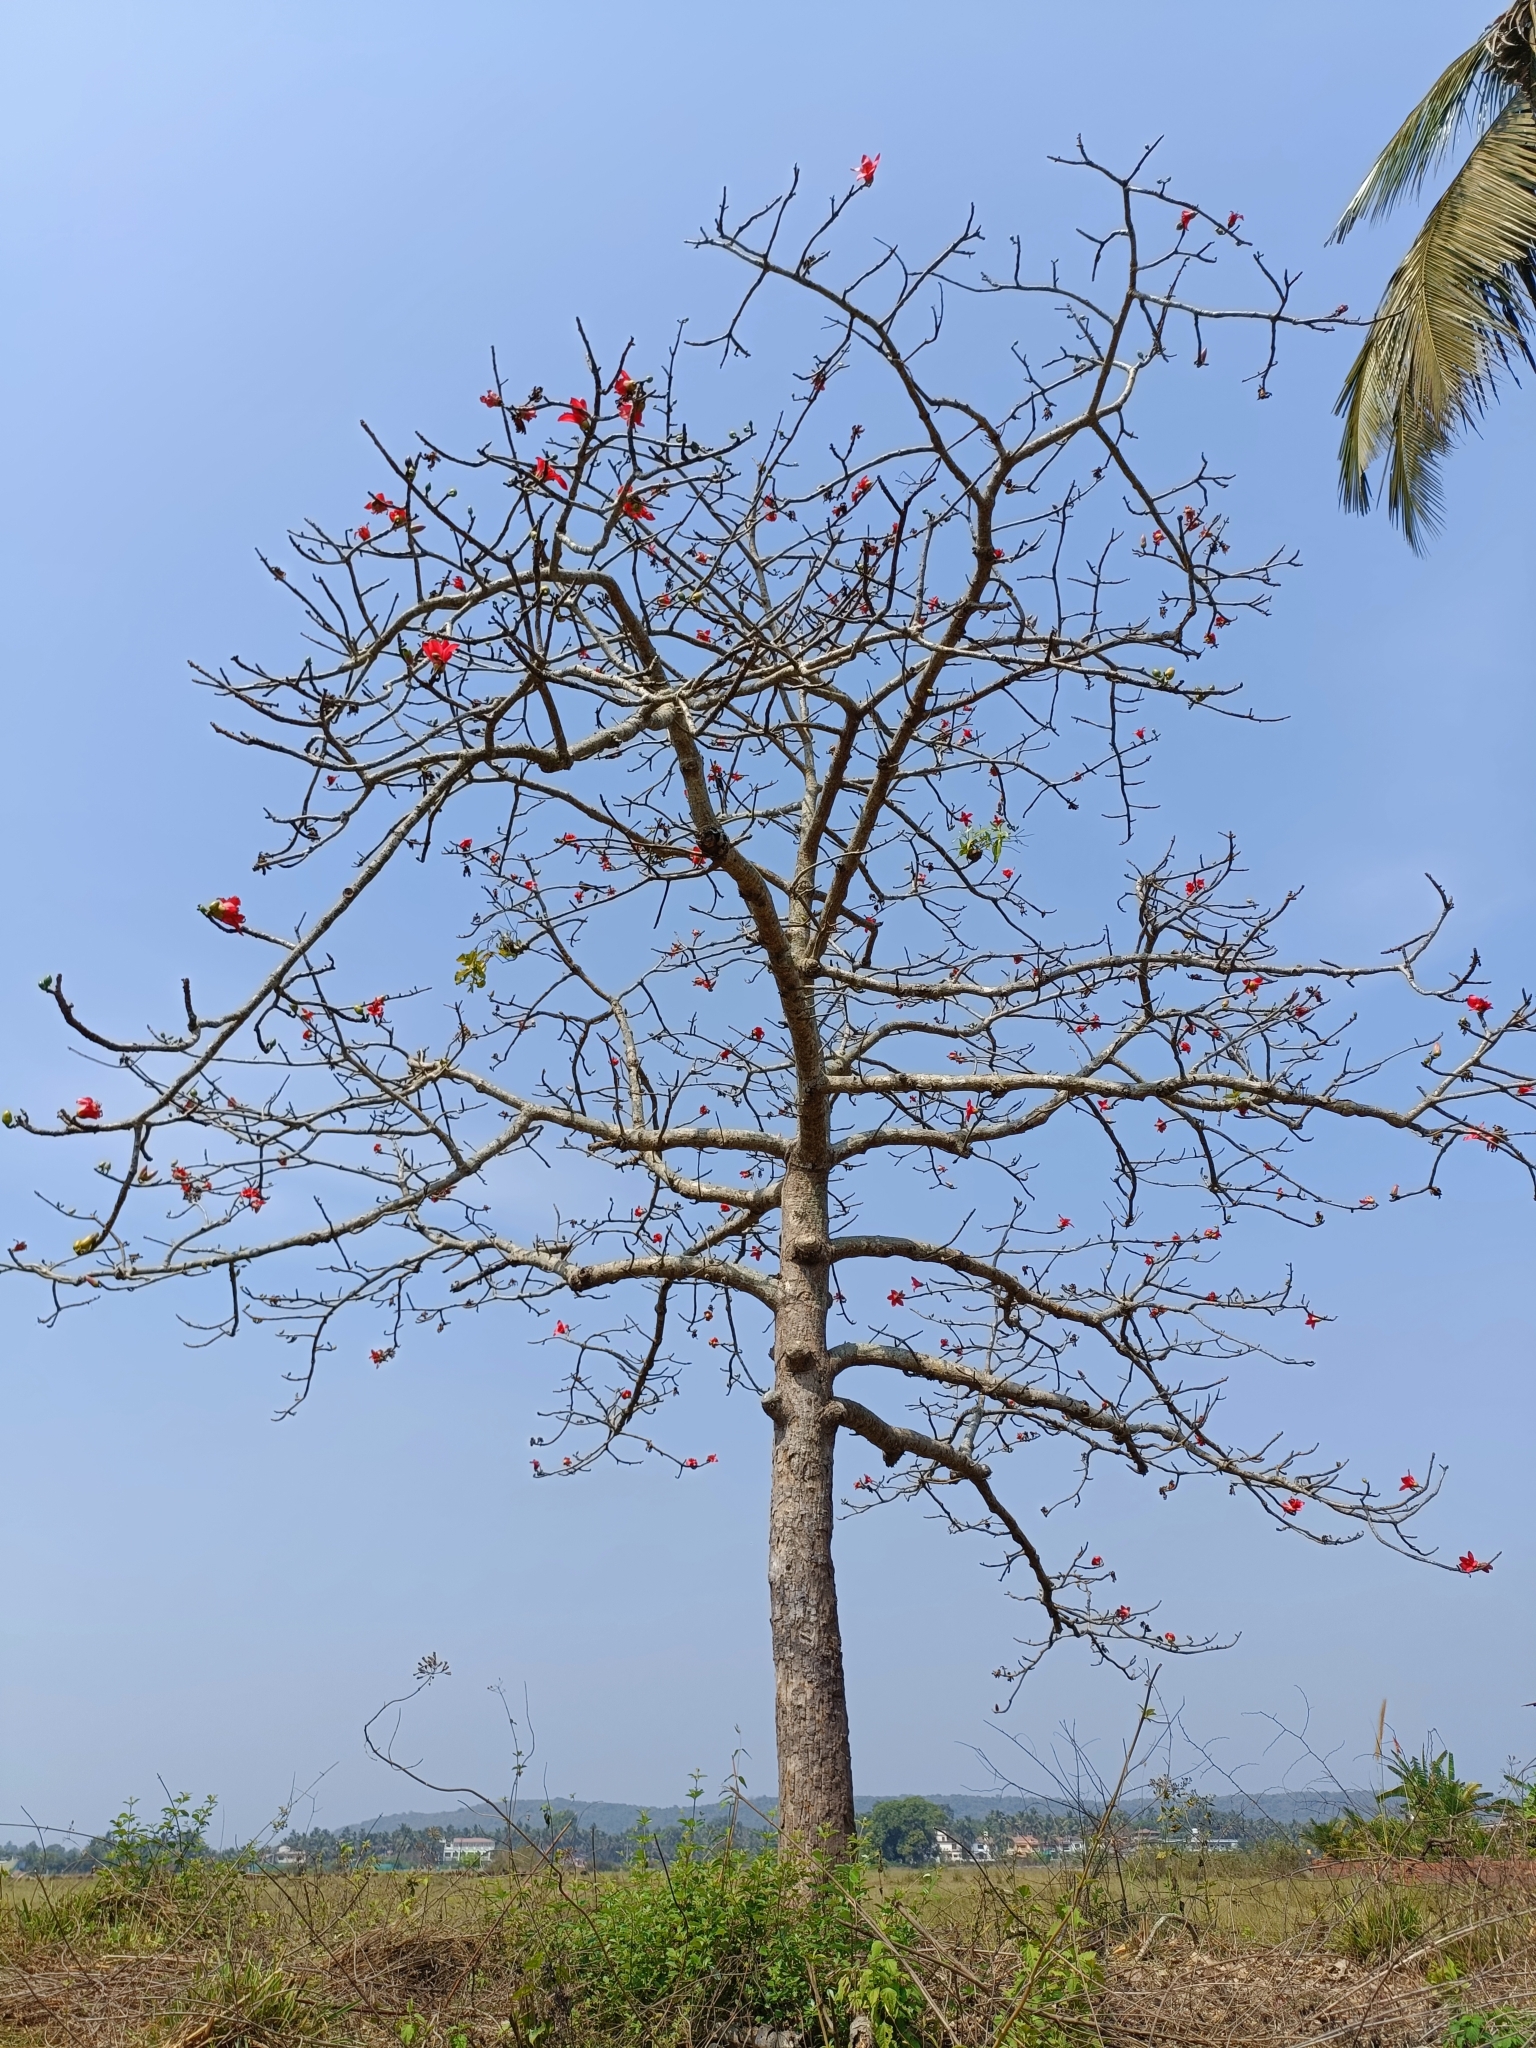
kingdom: Plantae
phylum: Tracheophyta
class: Magnoliopsida
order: Malvales
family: Malvaceae
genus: Bombax
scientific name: Bombax ceiba
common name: Northern-cottonwood
